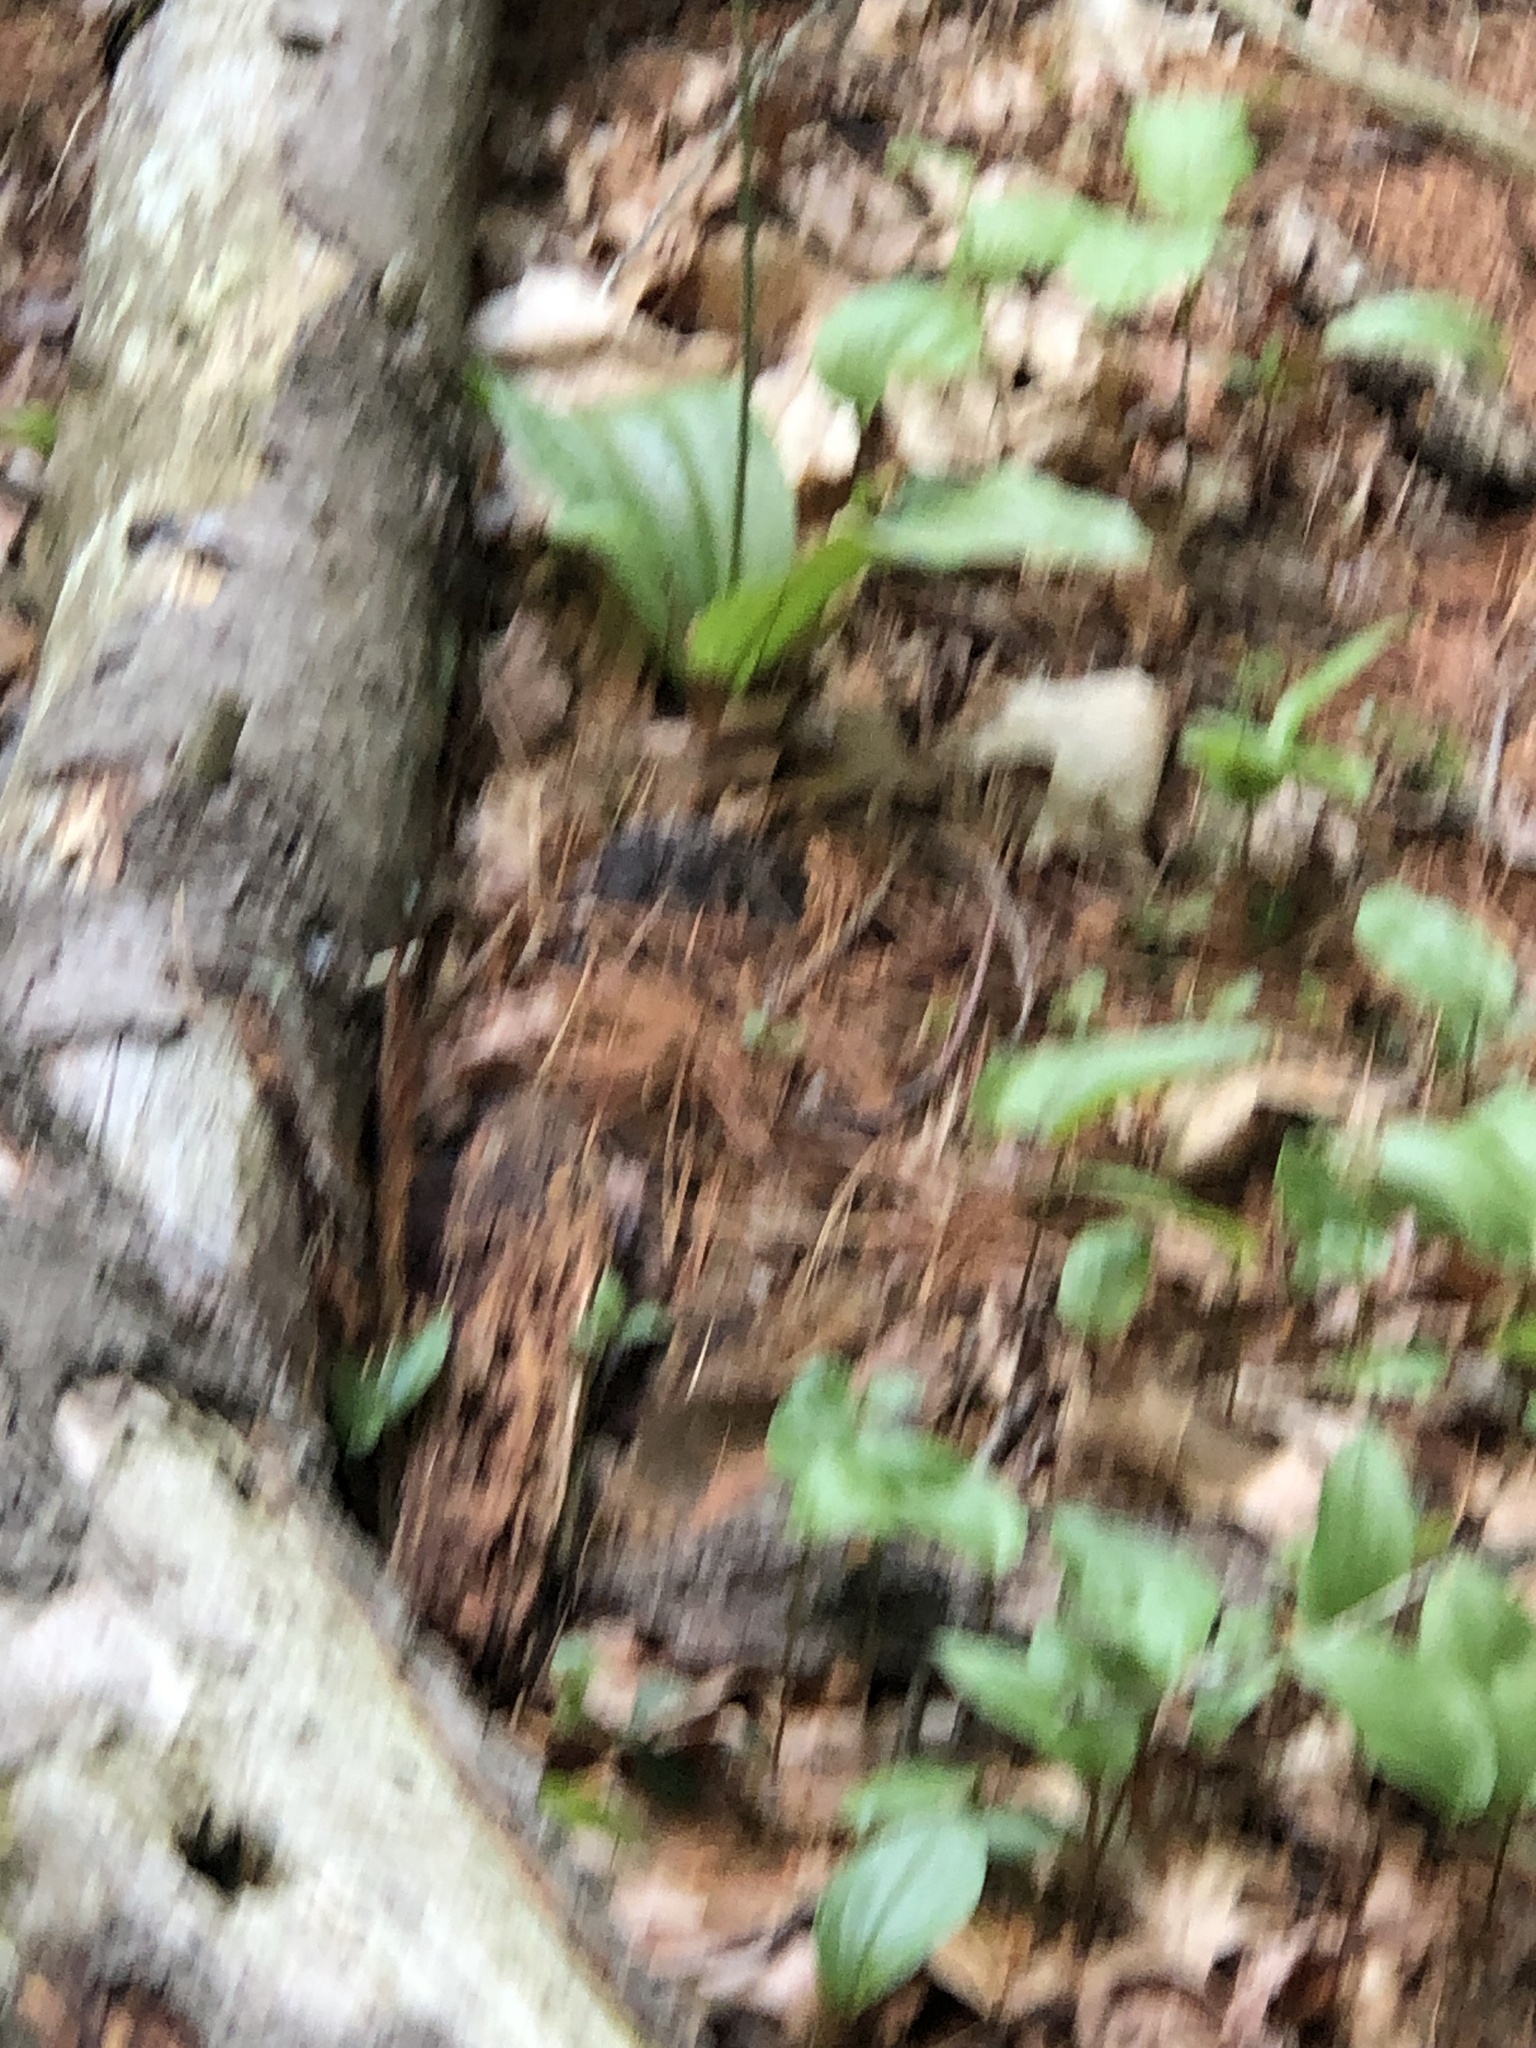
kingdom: Plantae
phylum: Tracheophyta
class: Liliopsida
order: Asparagales
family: Orchidaceae
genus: Cypripedium
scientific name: Cypripedium acaule
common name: Pink lady's-slipper
